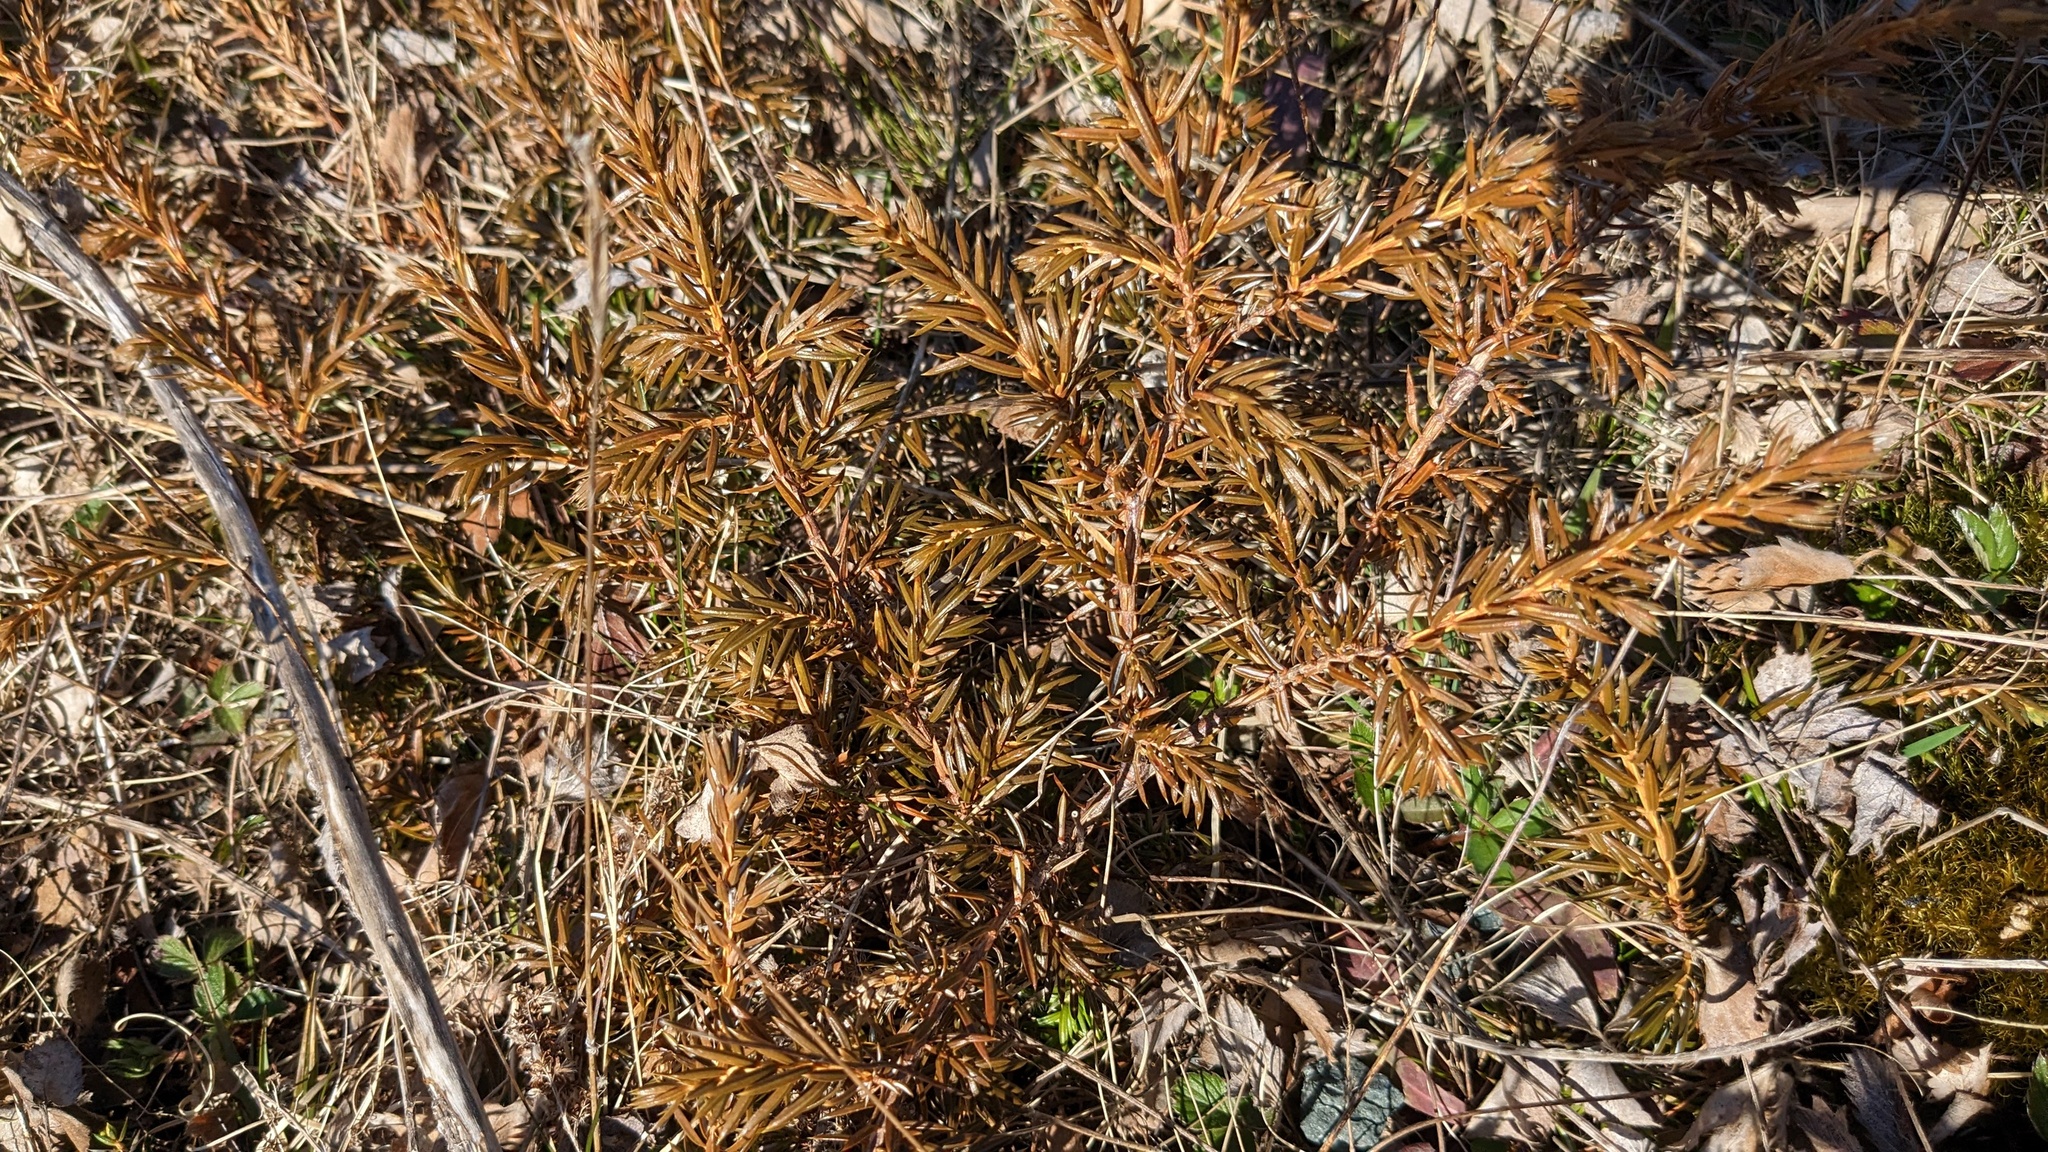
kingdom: Plantae
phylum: Tracheophyta
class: Pinopsida
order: Pinales
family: Cupressaceae
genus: Juniperus
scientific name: Juniperus communis
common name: Common juniper
